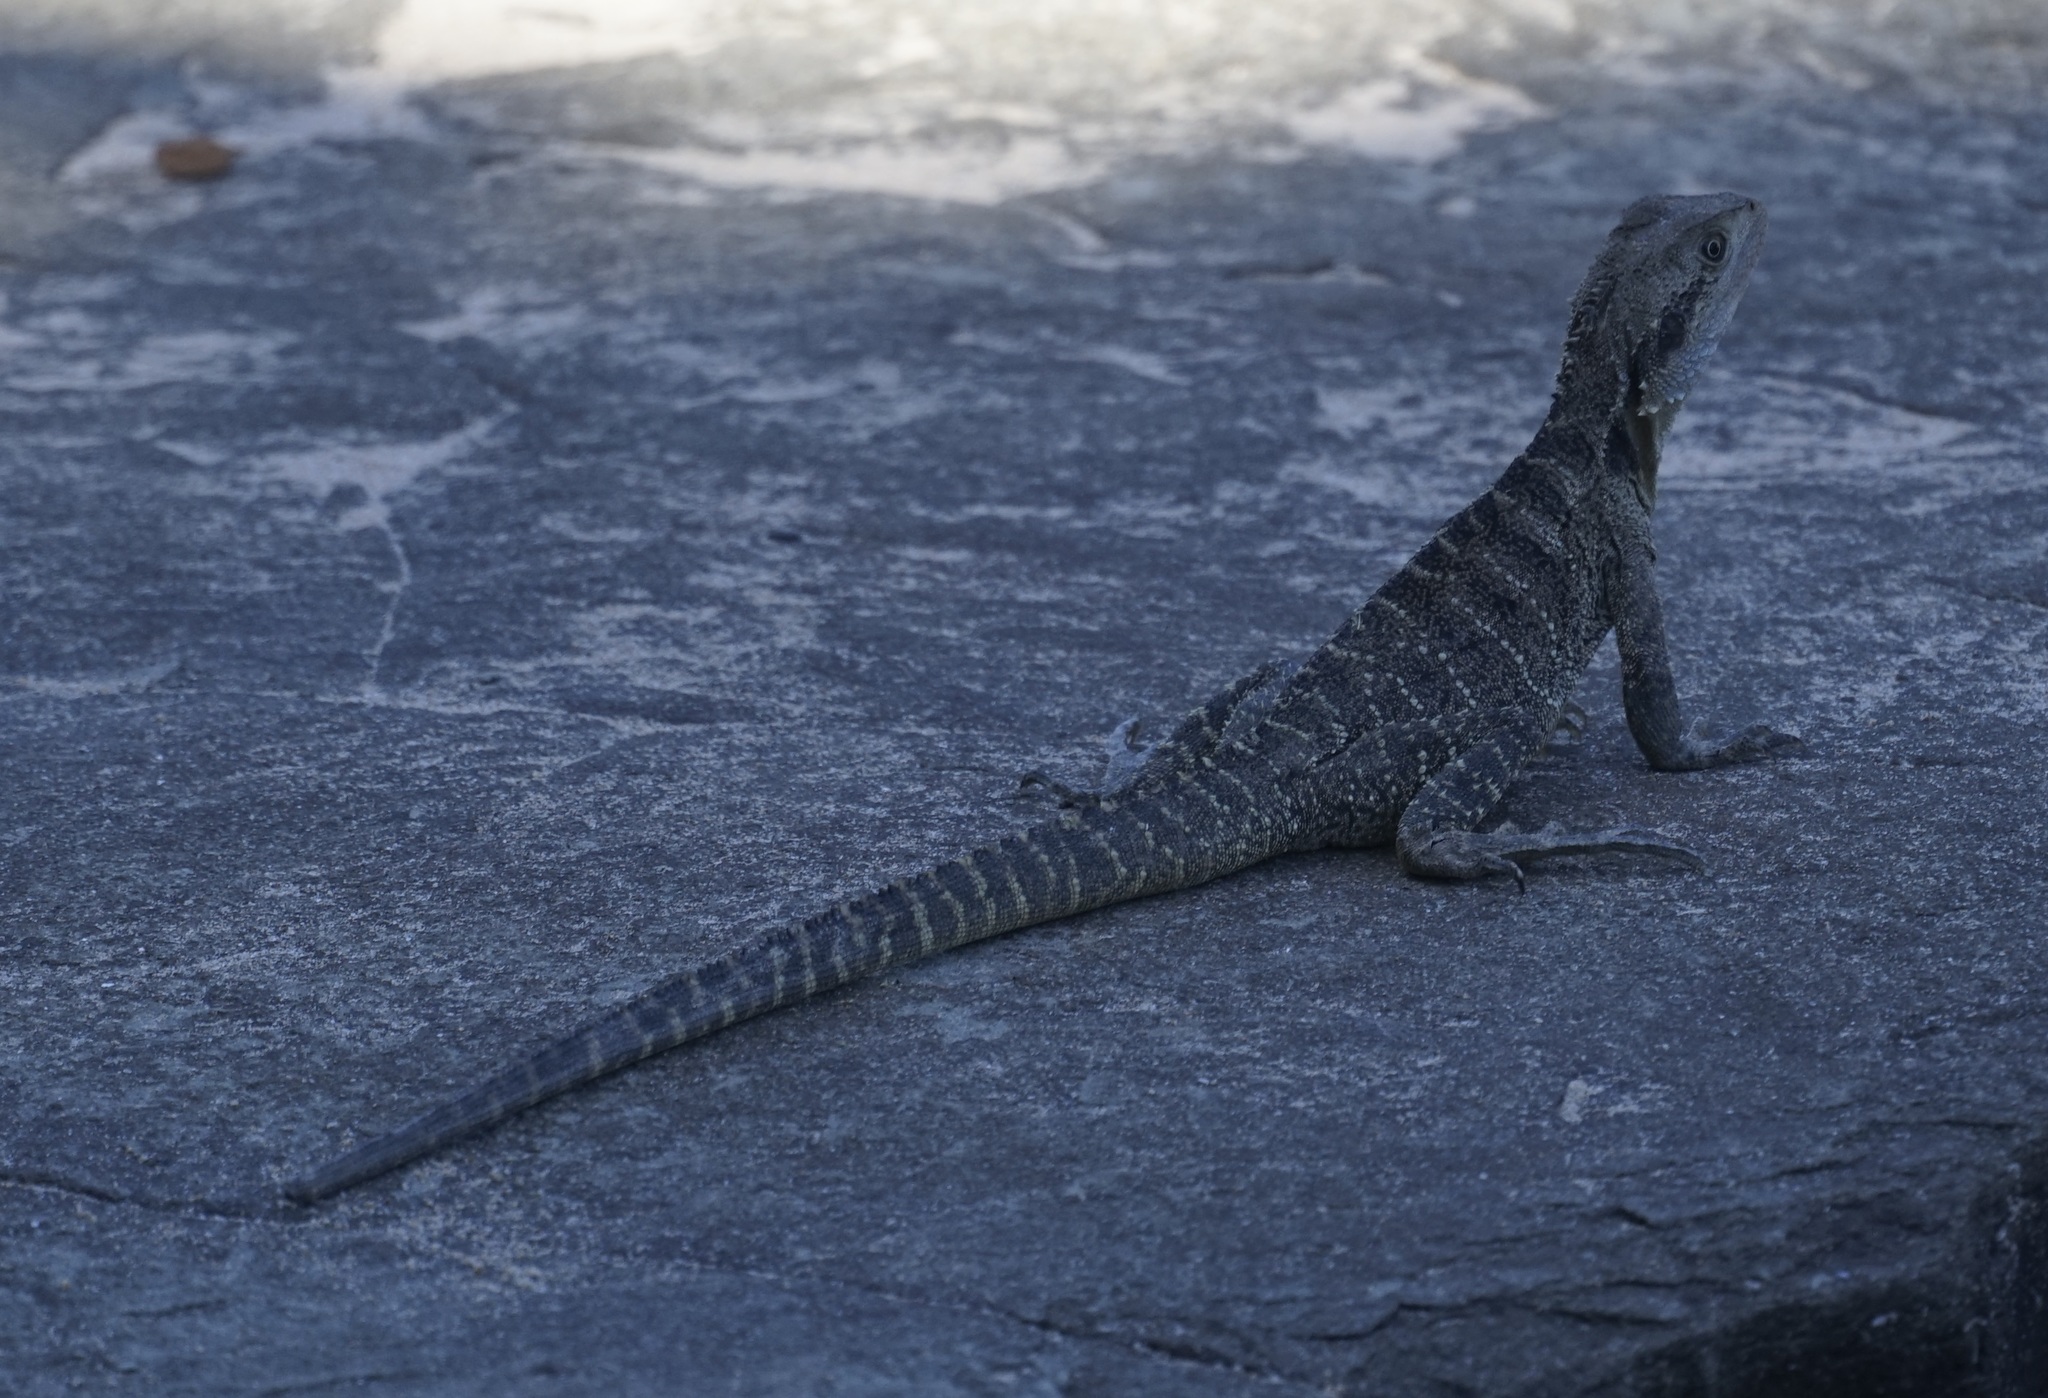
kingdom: Animalia
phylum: Chordata
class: Squamata
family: Agamidae
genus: Intellagama
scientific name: Intellagama lesueurii
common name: Eastern water dragon
